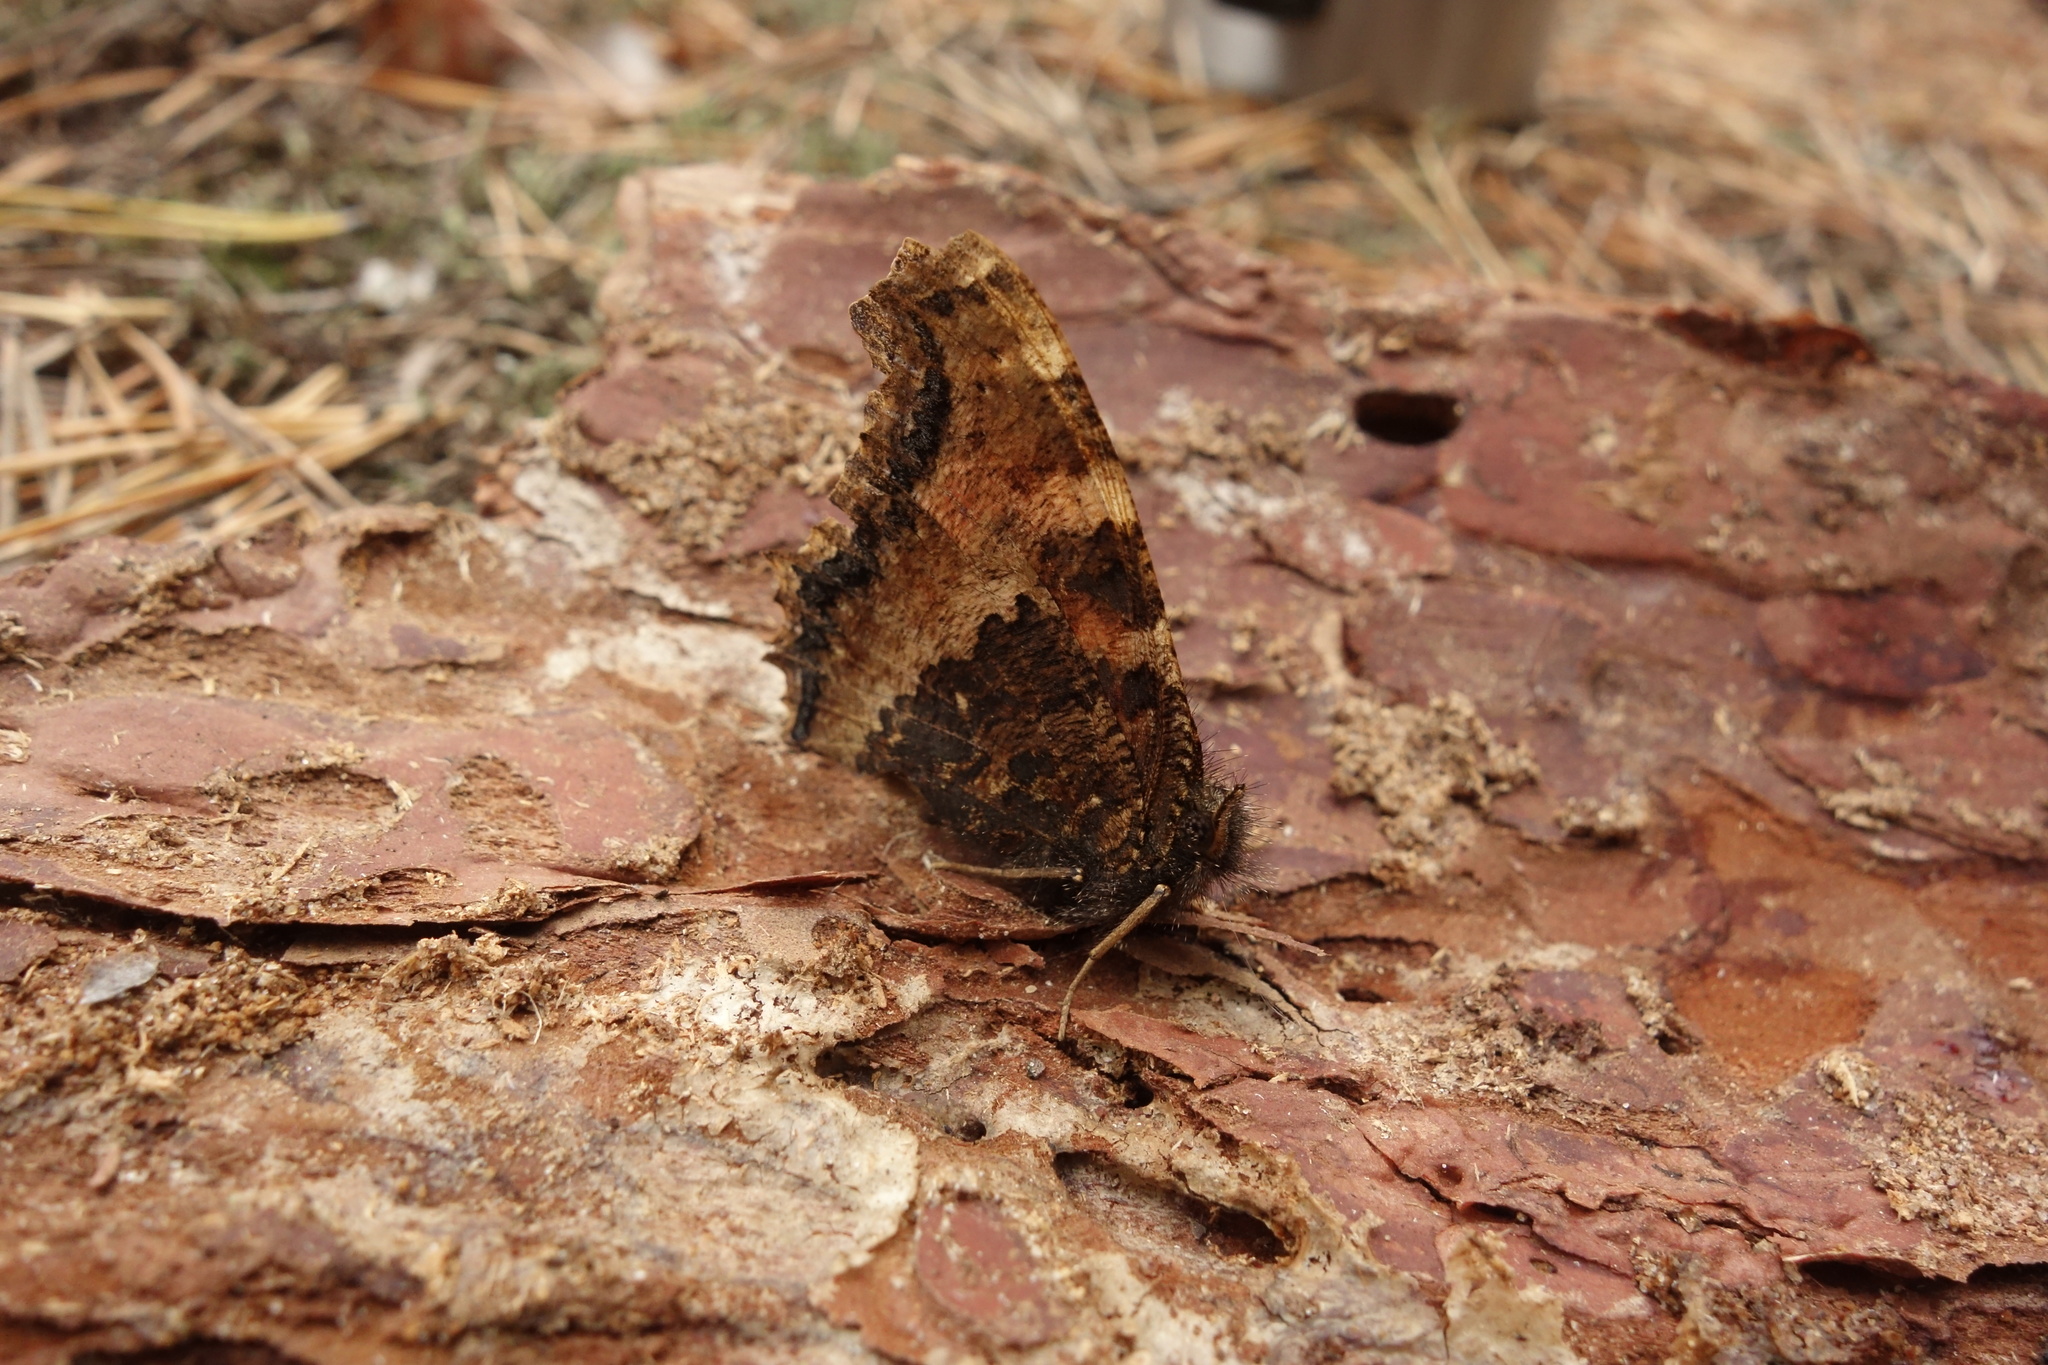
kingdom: Animalia
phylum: Arthropoda
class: Insecta
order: Lepidoptera
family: Nymphalidae
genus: Nymphalis
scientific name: Nymphalis xanthomelas
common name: Scarce tortoiseshell
